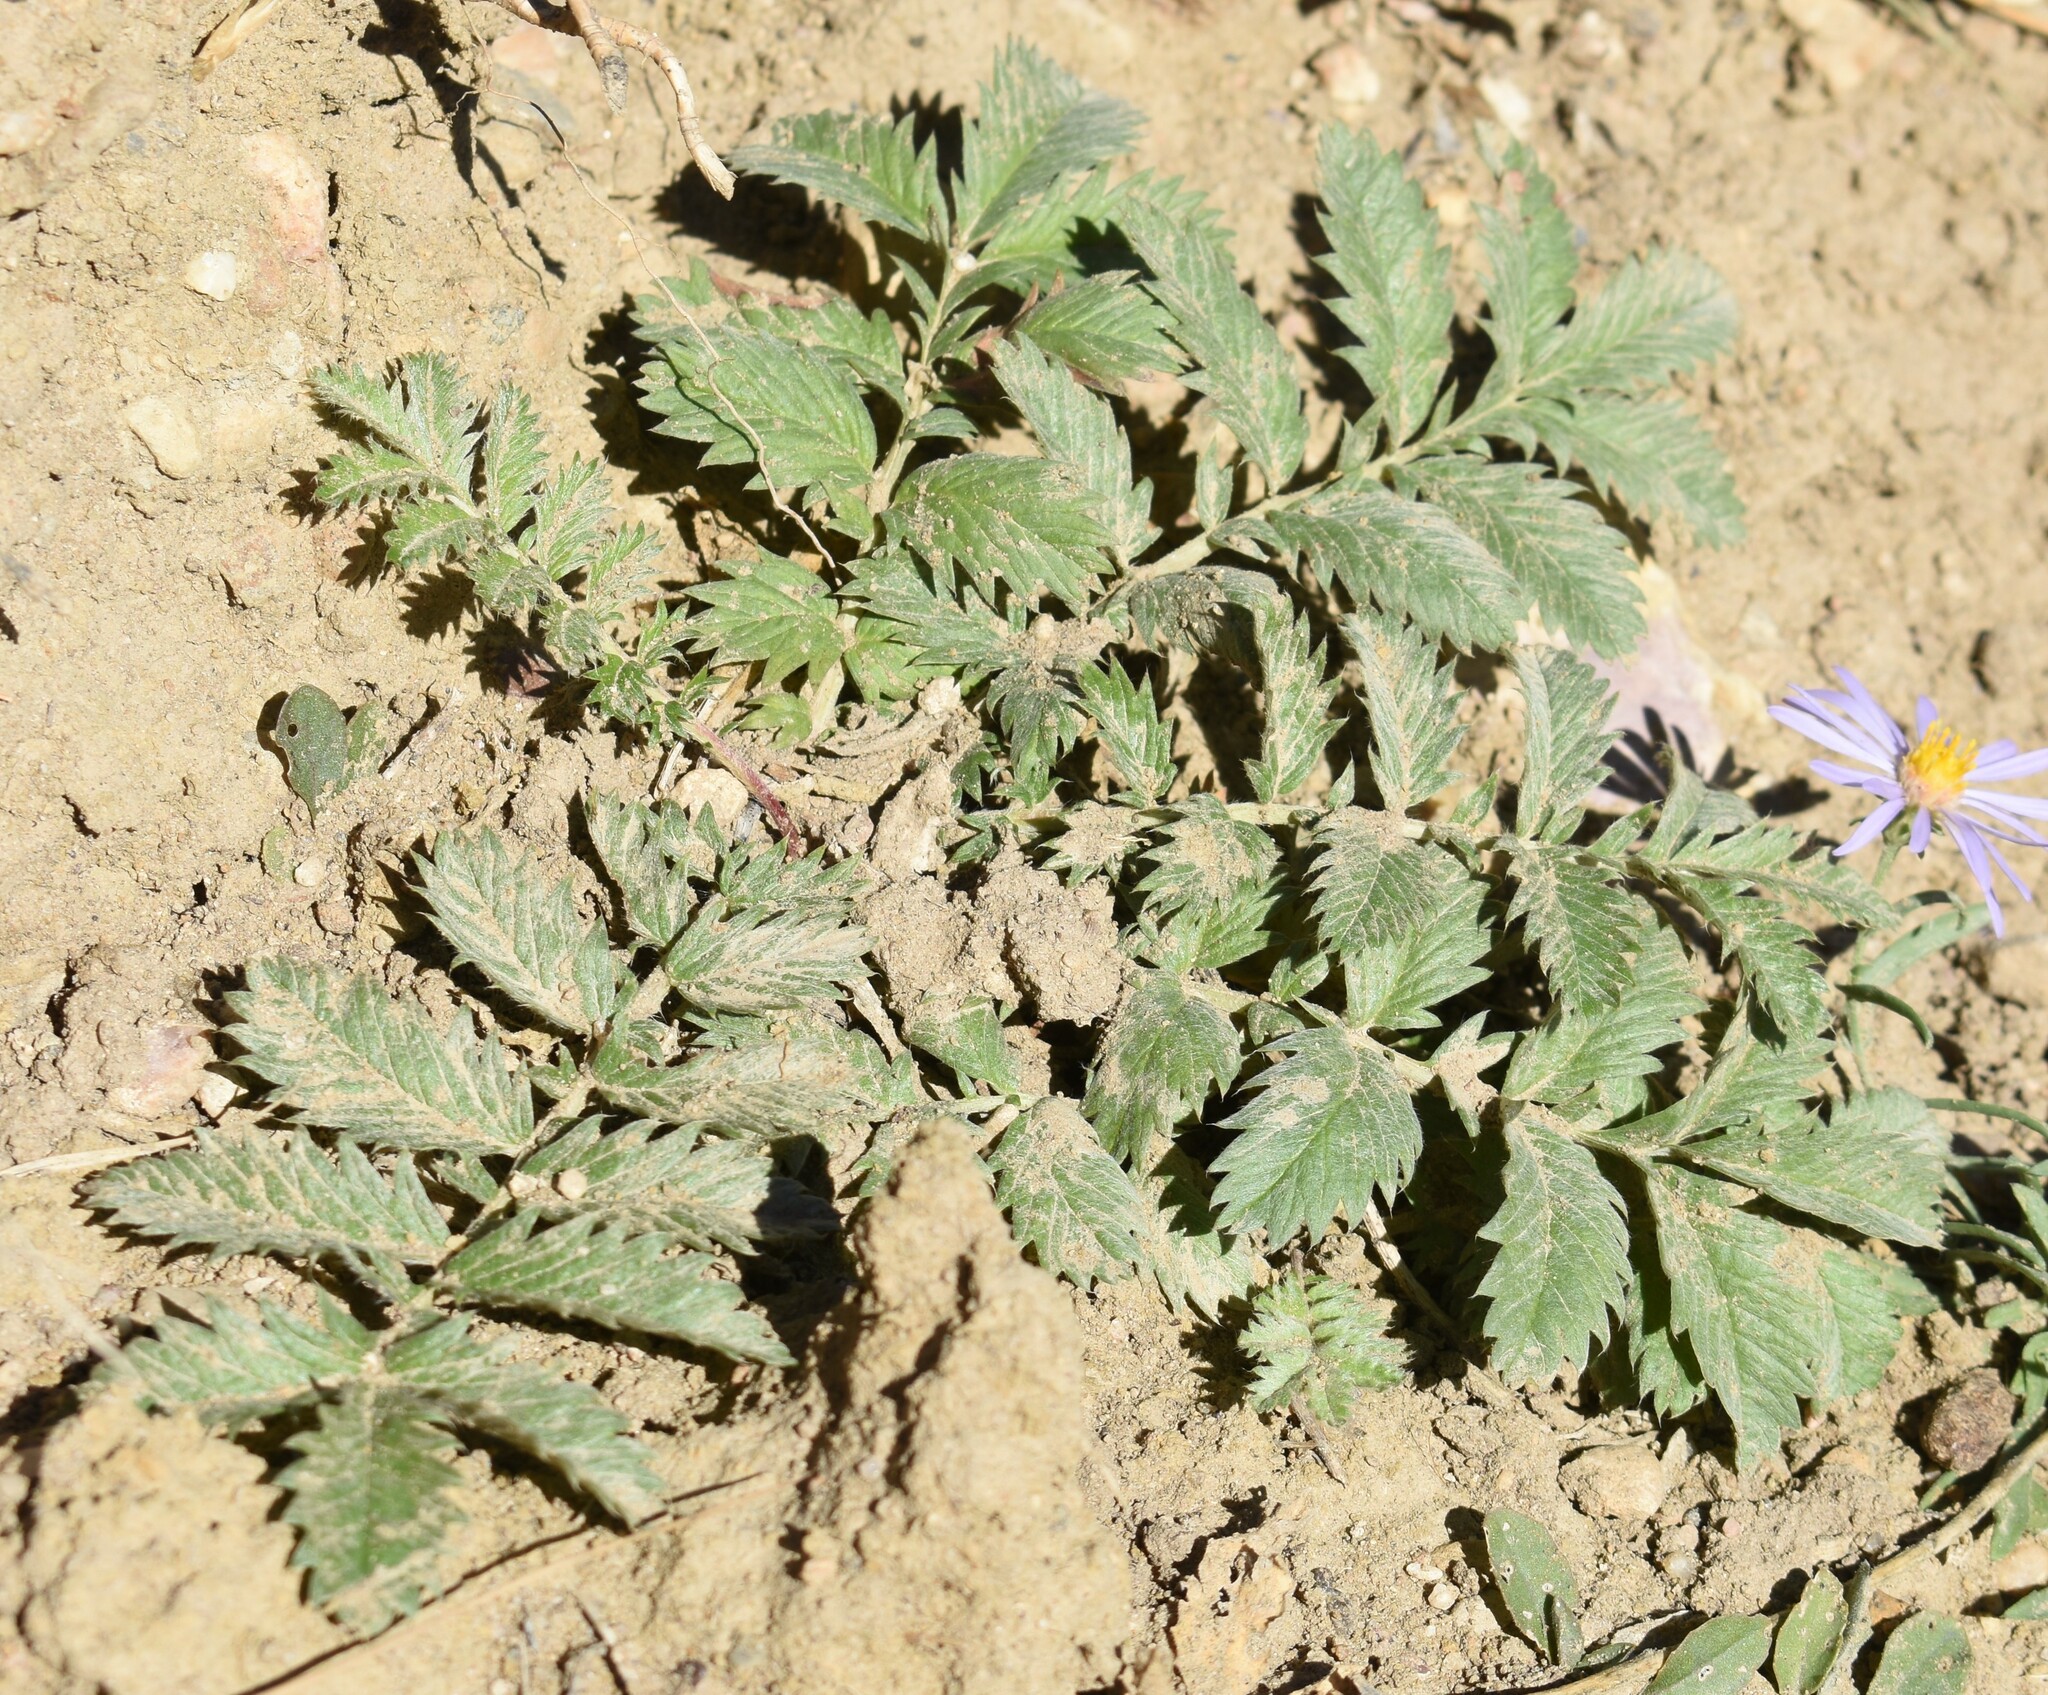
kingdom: Plantae
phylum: Tracheophyta
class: Magnoliopsida
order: Rosales
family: Rosaceae
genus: Argentina
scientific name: Argentina anserina
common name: Common silverweed
